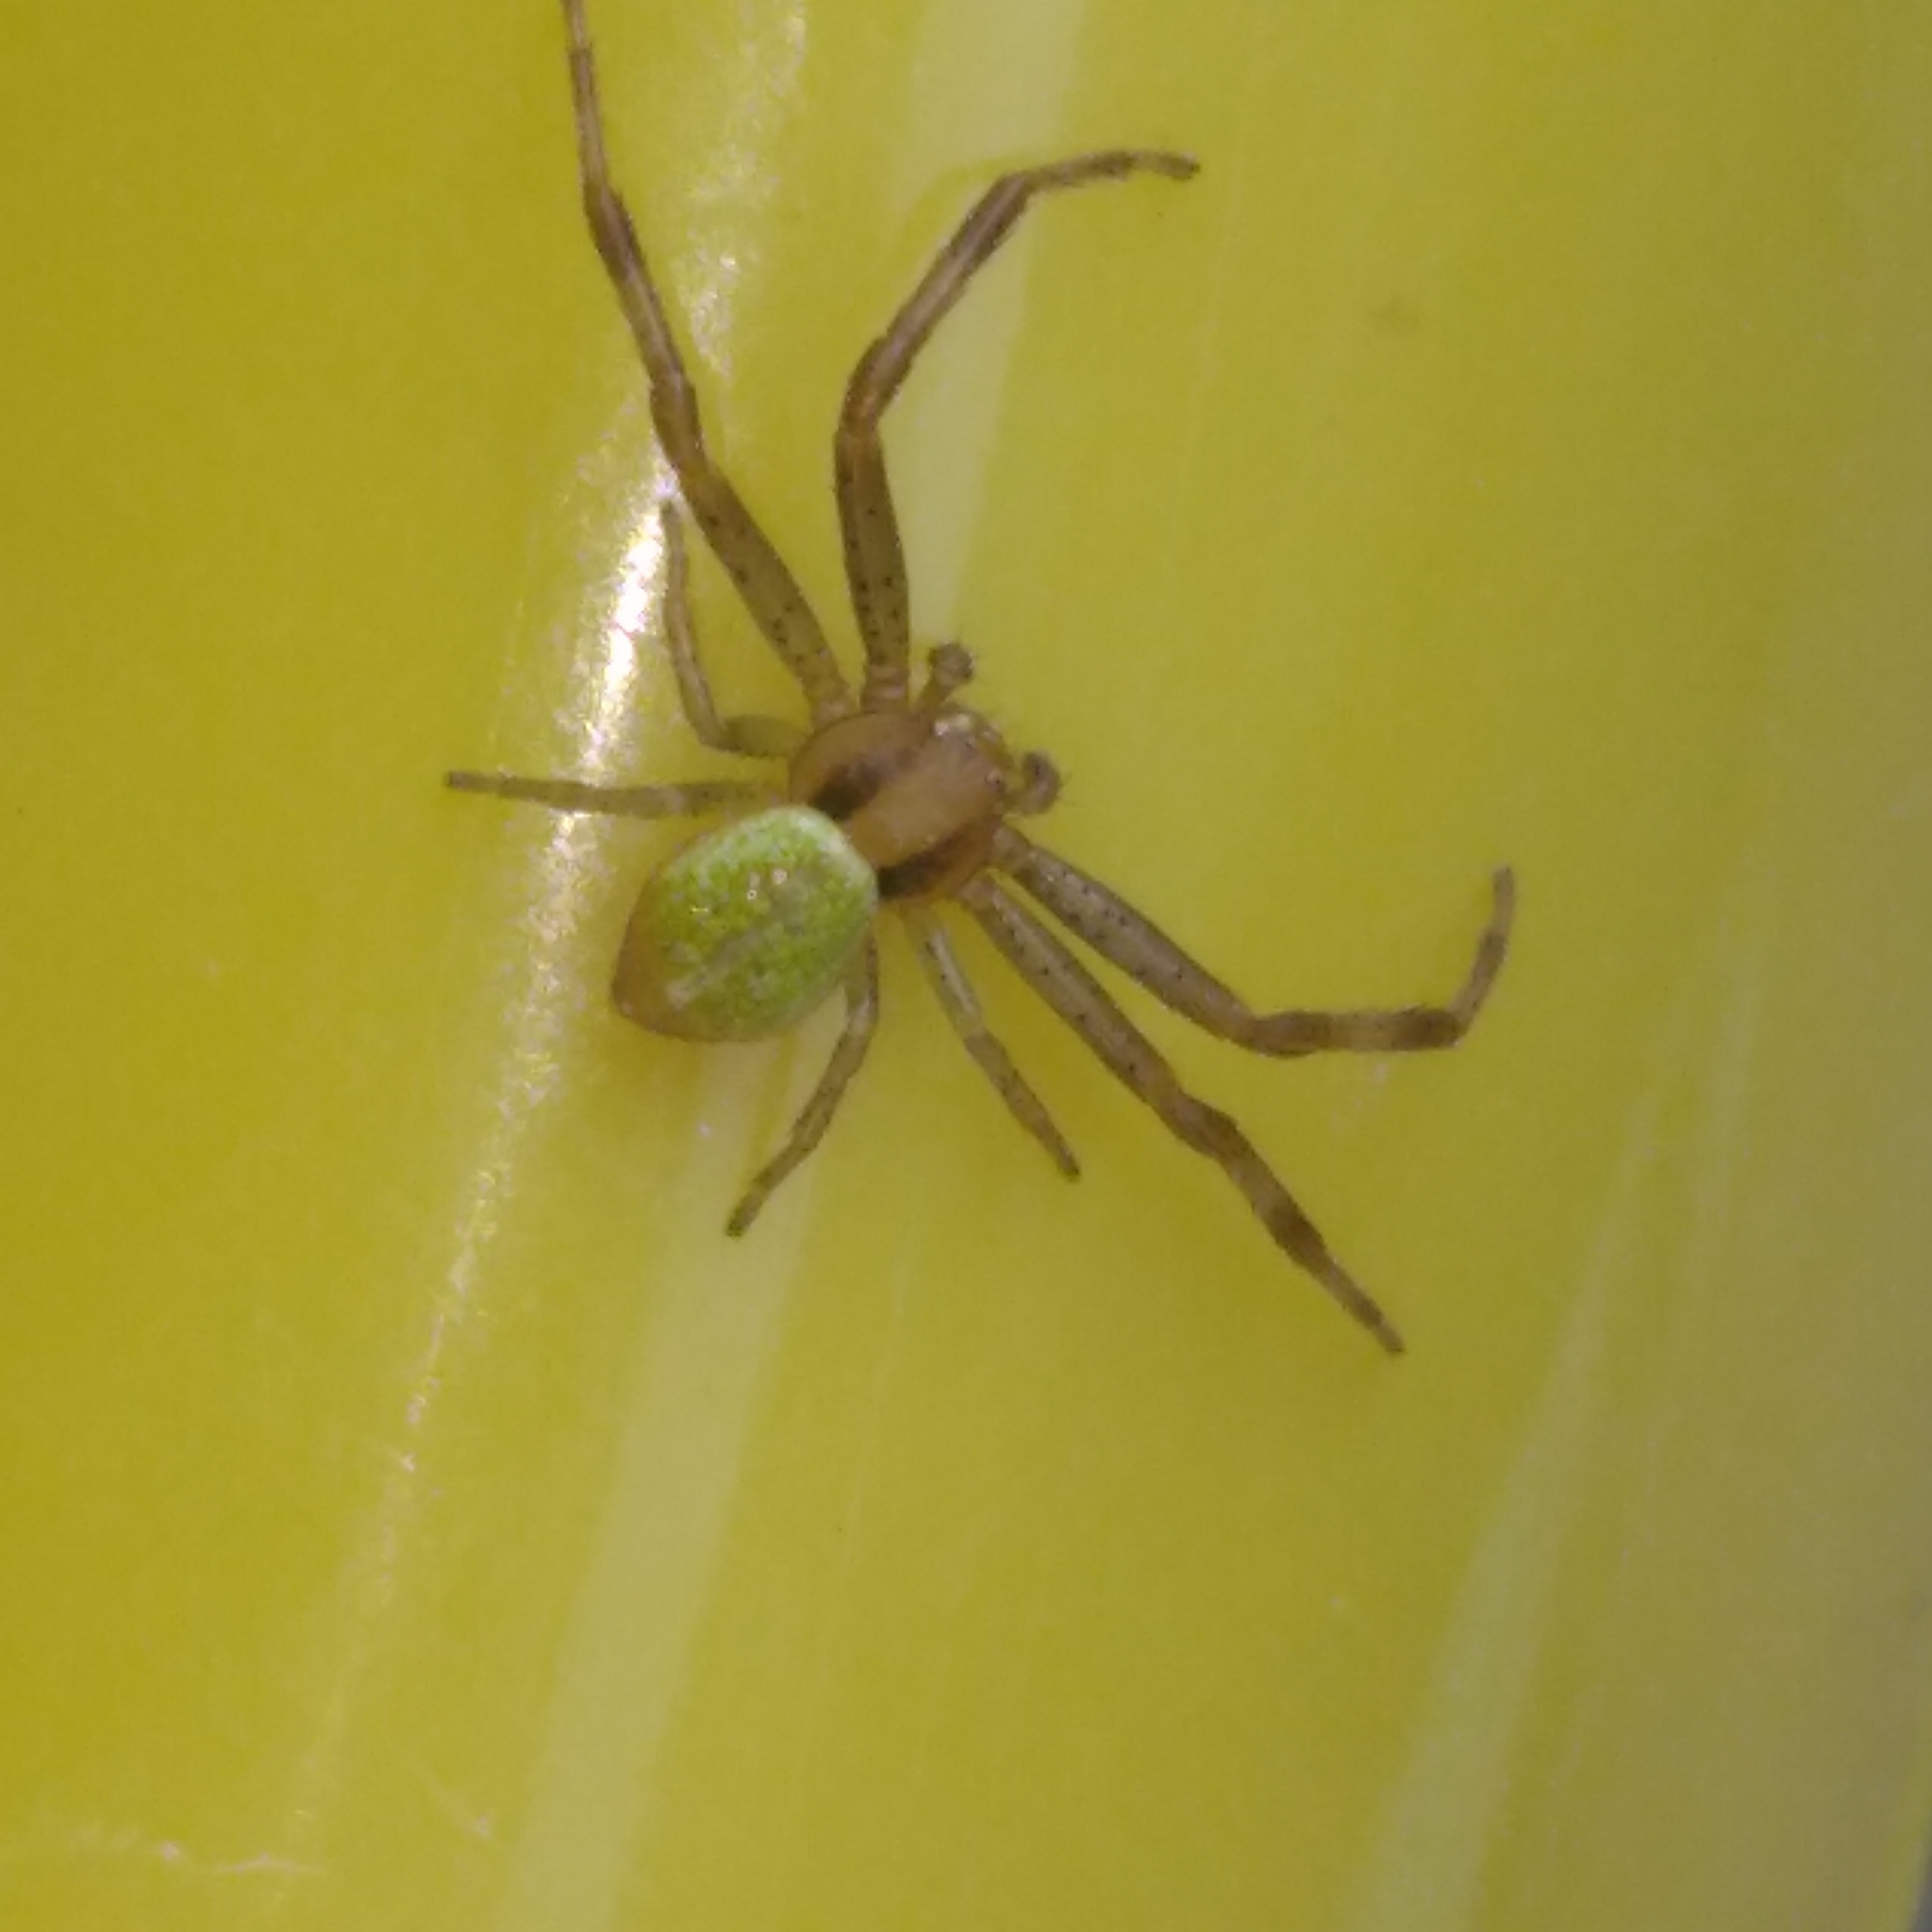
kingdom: Animalia
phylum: Arthropoda
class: Arachnida
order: Araneae
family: Thomisidae
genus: Ebrechtella
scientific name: Ebrechtella tricuspidata
